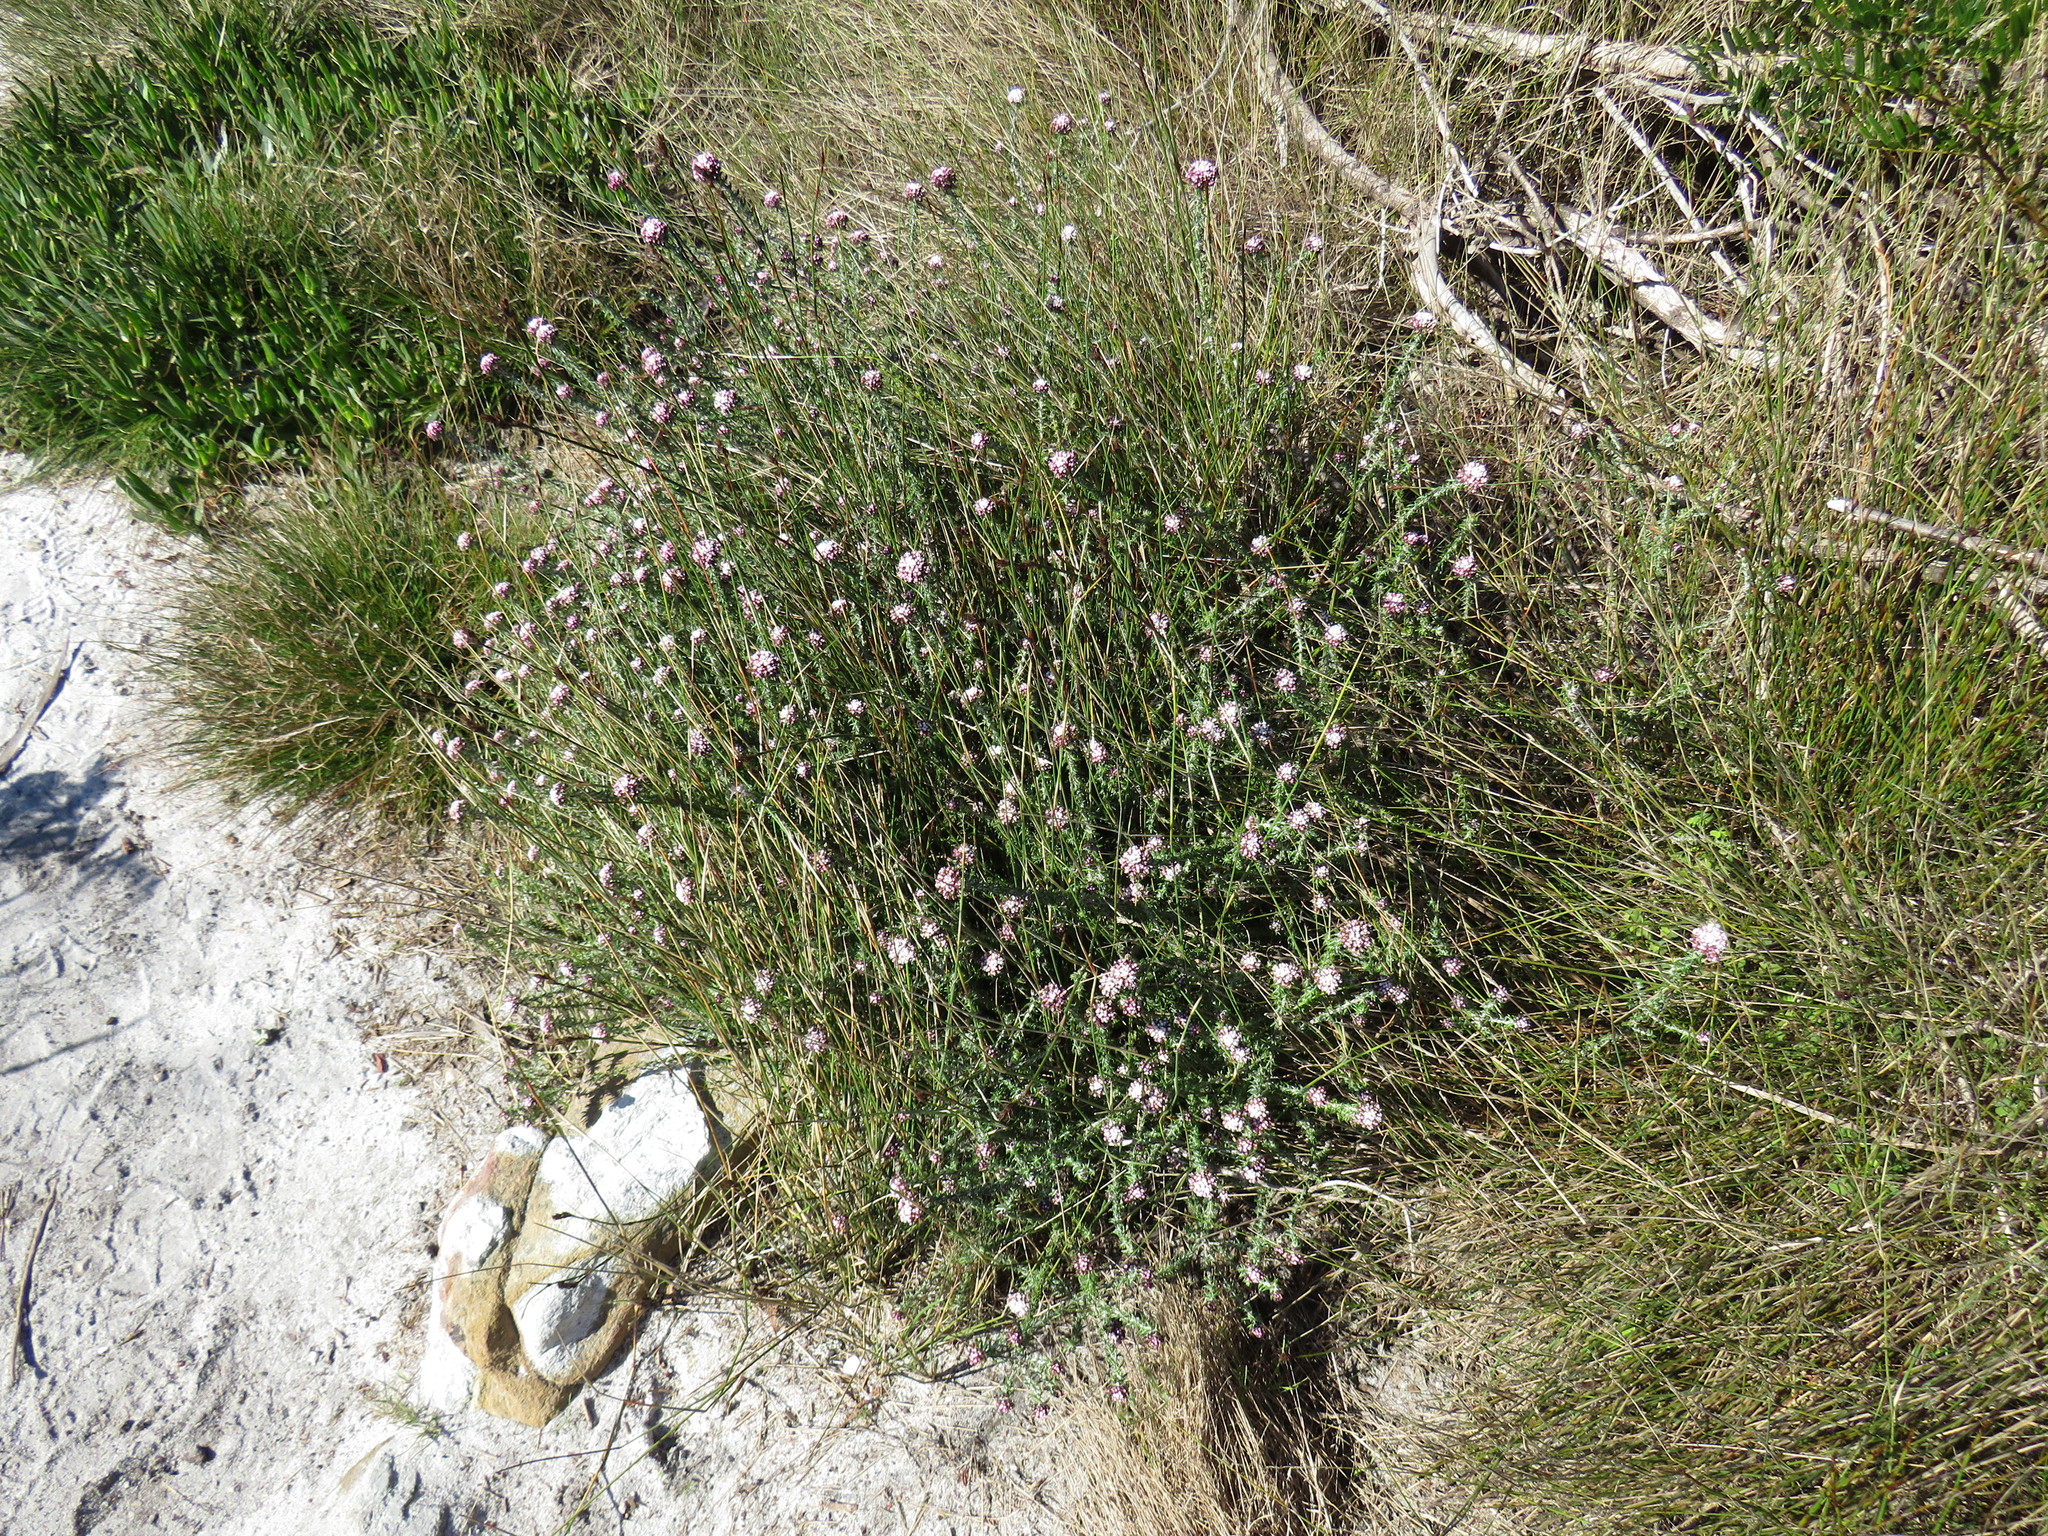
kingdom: Plantae
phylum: Tracheophyta
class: Magnoliopsida
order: Asterales
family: Asteraceae
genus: Metalasia
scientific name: Metalasia divergens
